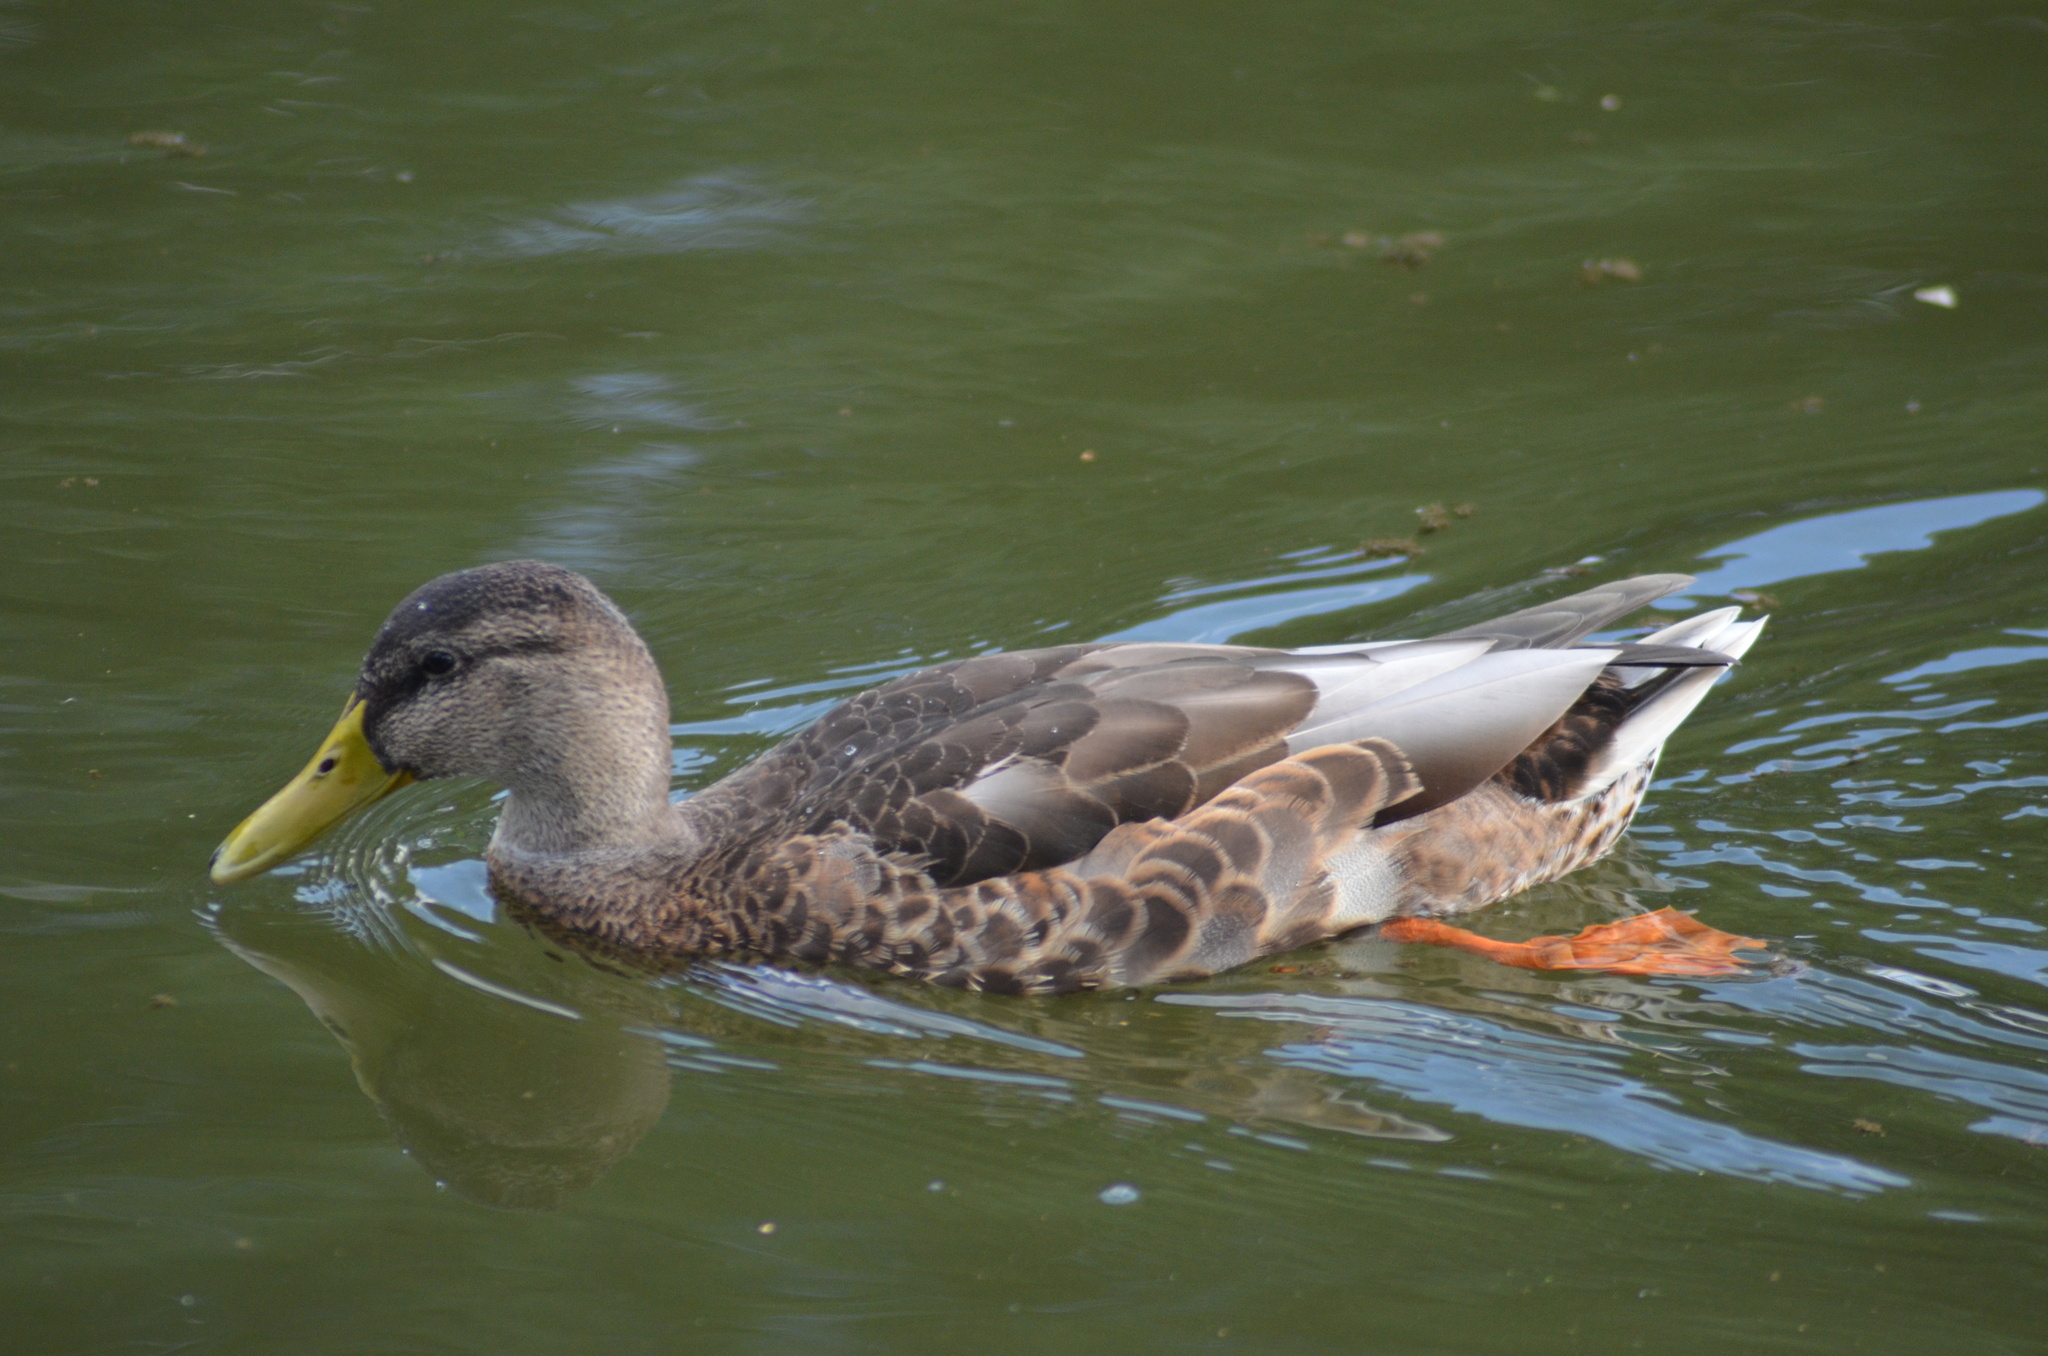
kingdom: Animalia
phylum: Chordata
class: Aves
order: Anseriformes
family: Anatidae
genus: Anas
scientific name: Anas platyrhynchos
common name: Mallard
